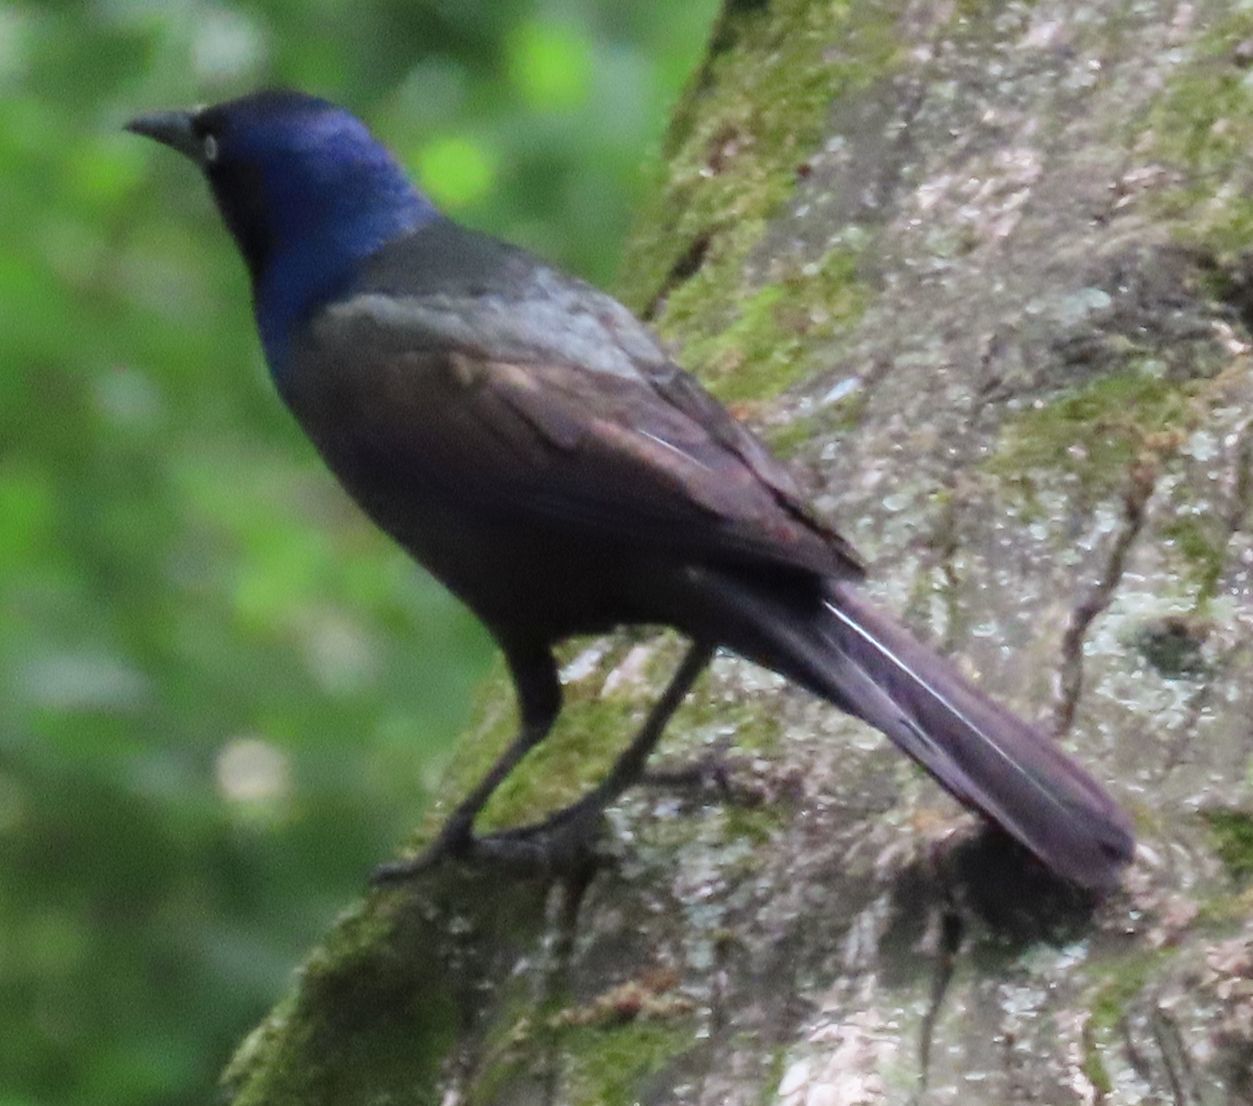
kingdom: Animalia
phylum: Chordata
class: Aves
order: Passeriformes
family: Icteridae
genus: Quiscalus
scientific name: Quiscalus quiscula
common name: Common grackle
